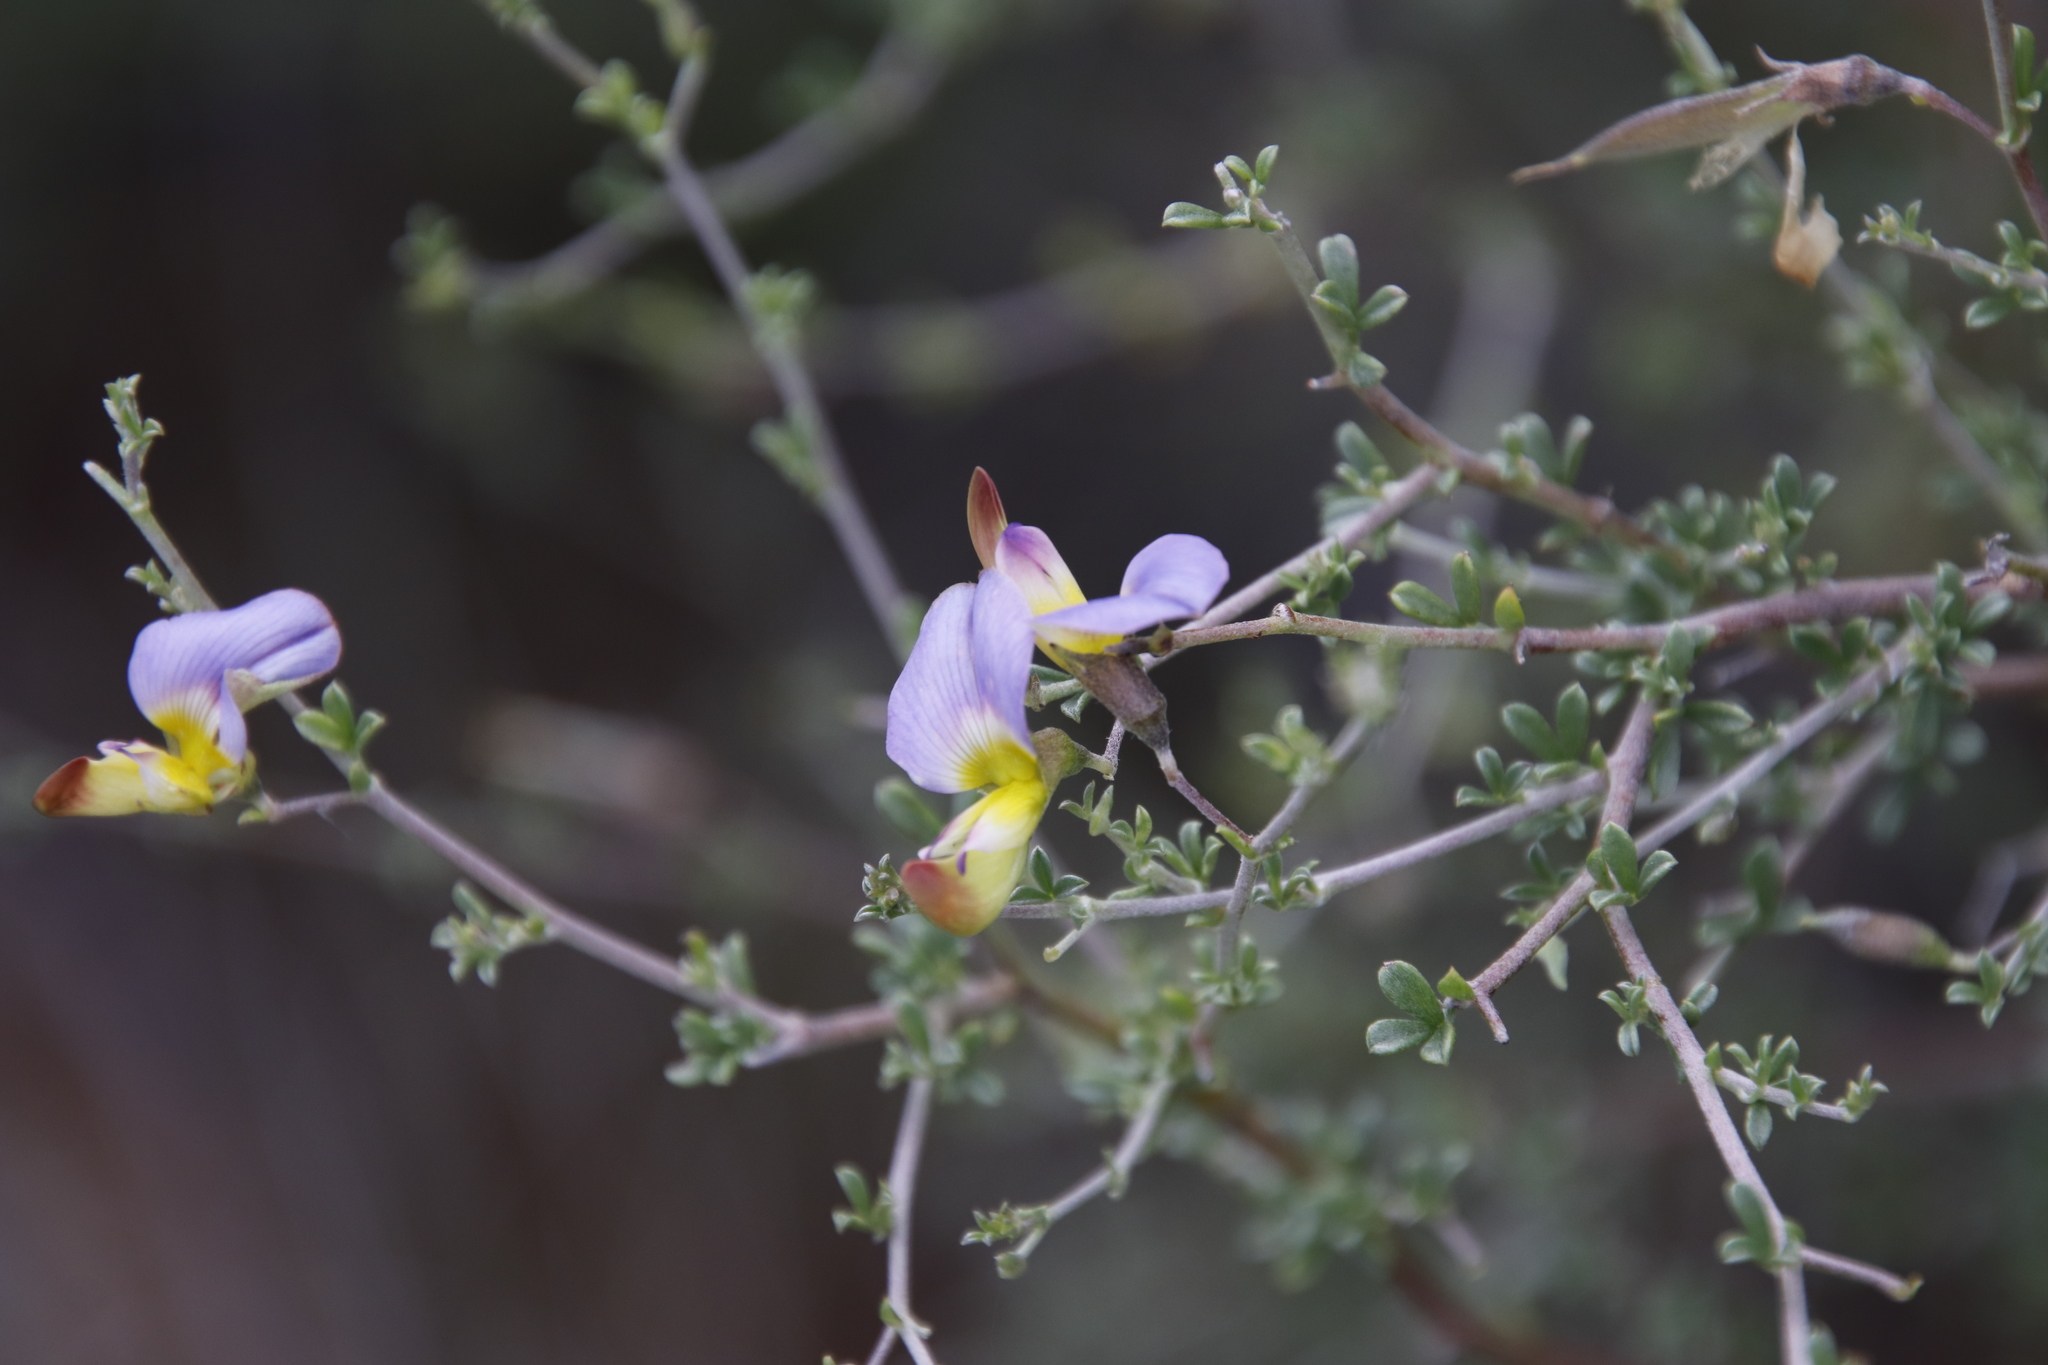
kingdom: Plantae
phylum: Tracheophyta
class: Magnoliopsida
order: Fabales
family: Fabaceae
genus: Lotononis
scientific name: Lotononis sericophylla
